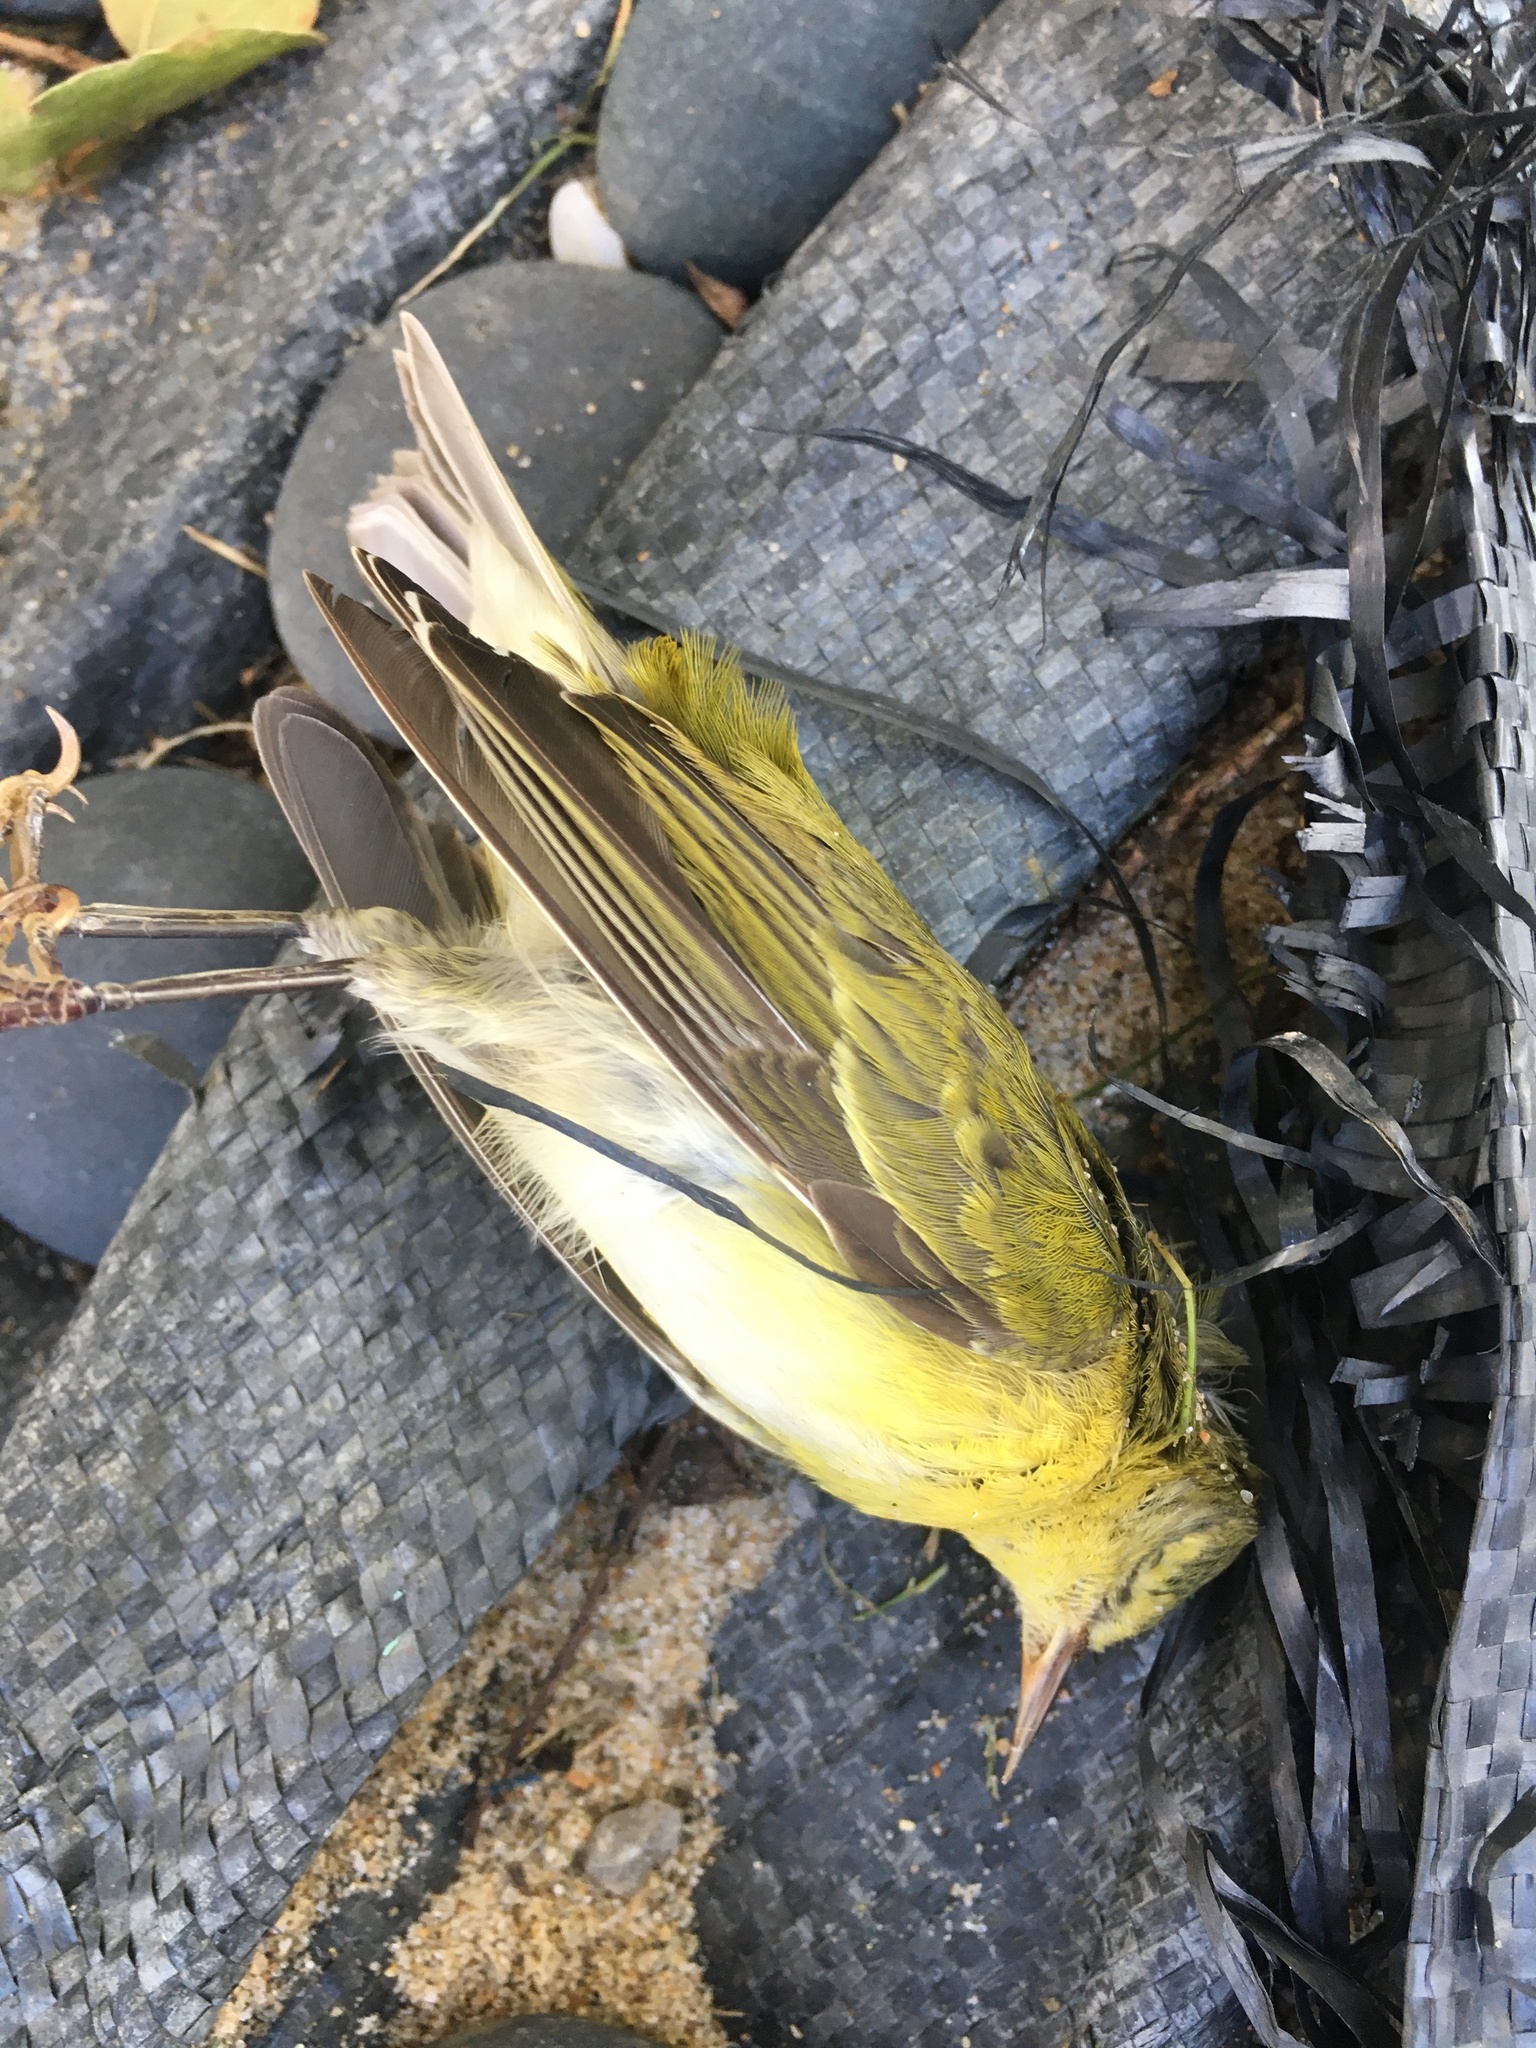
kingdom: Animalia
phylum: Chordata
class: Aves
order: Passeriformes
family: Parulidae
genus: Leiothlypis
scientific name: Leiothlypis peregrina
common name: Tennessee warbler
